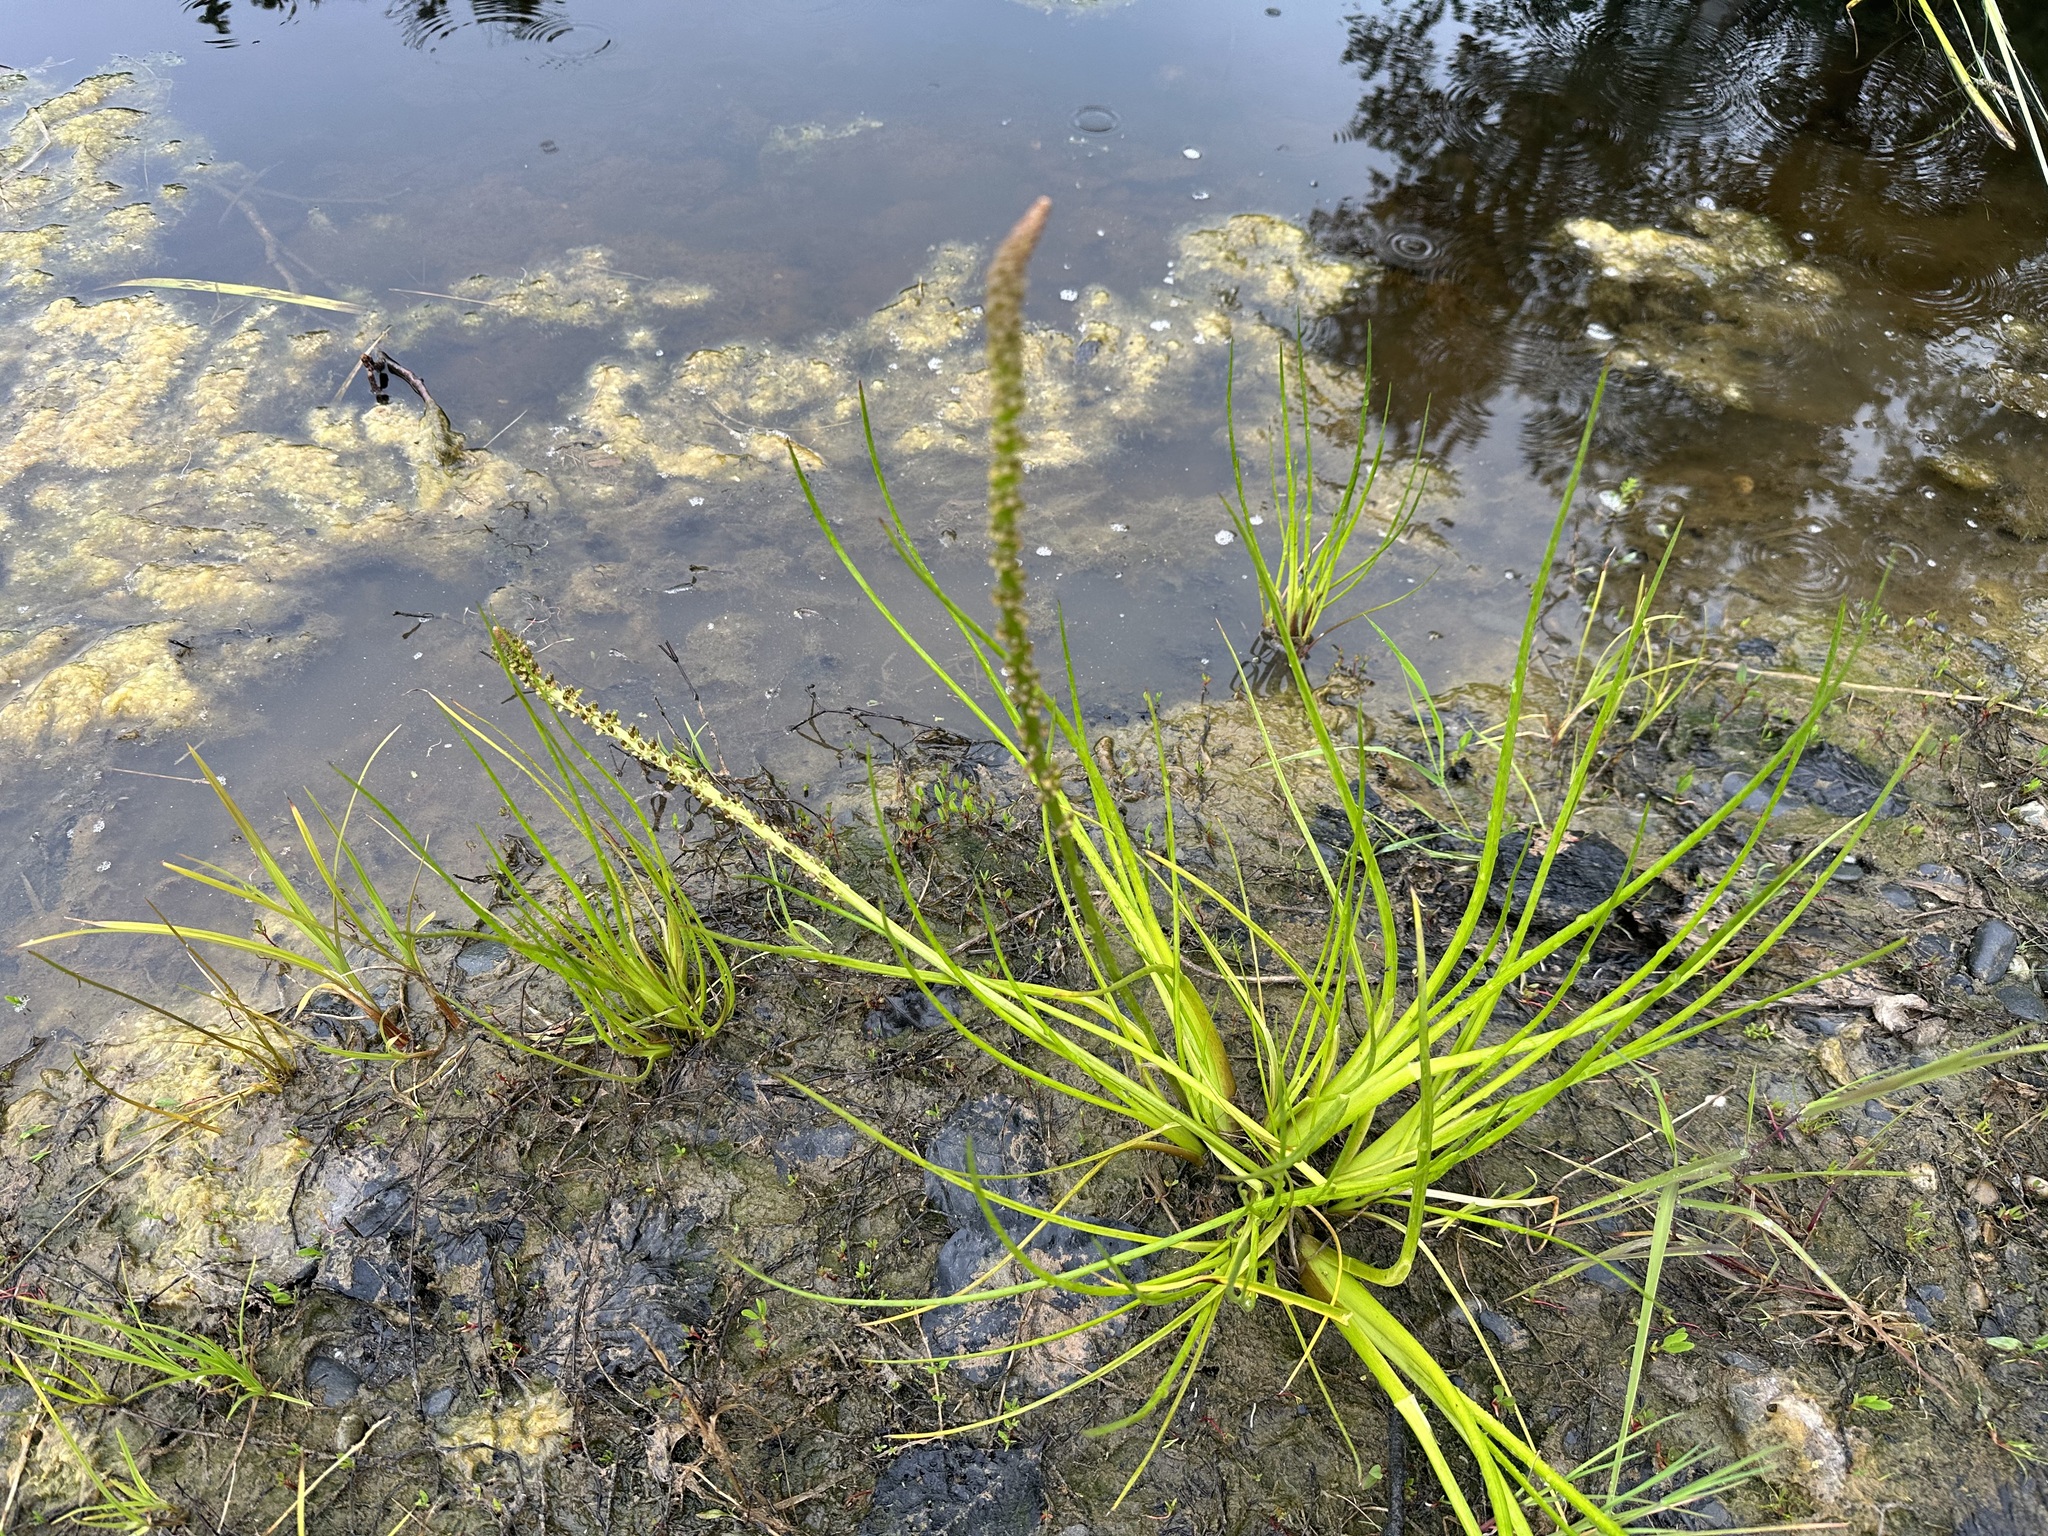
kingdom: Plantae
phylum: Tracheophyta
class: Liliopsida
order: Alismatales
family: Juncaginaceae
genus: Triglochin
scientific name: Triglochin maritima
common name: Sea arrowgrass
